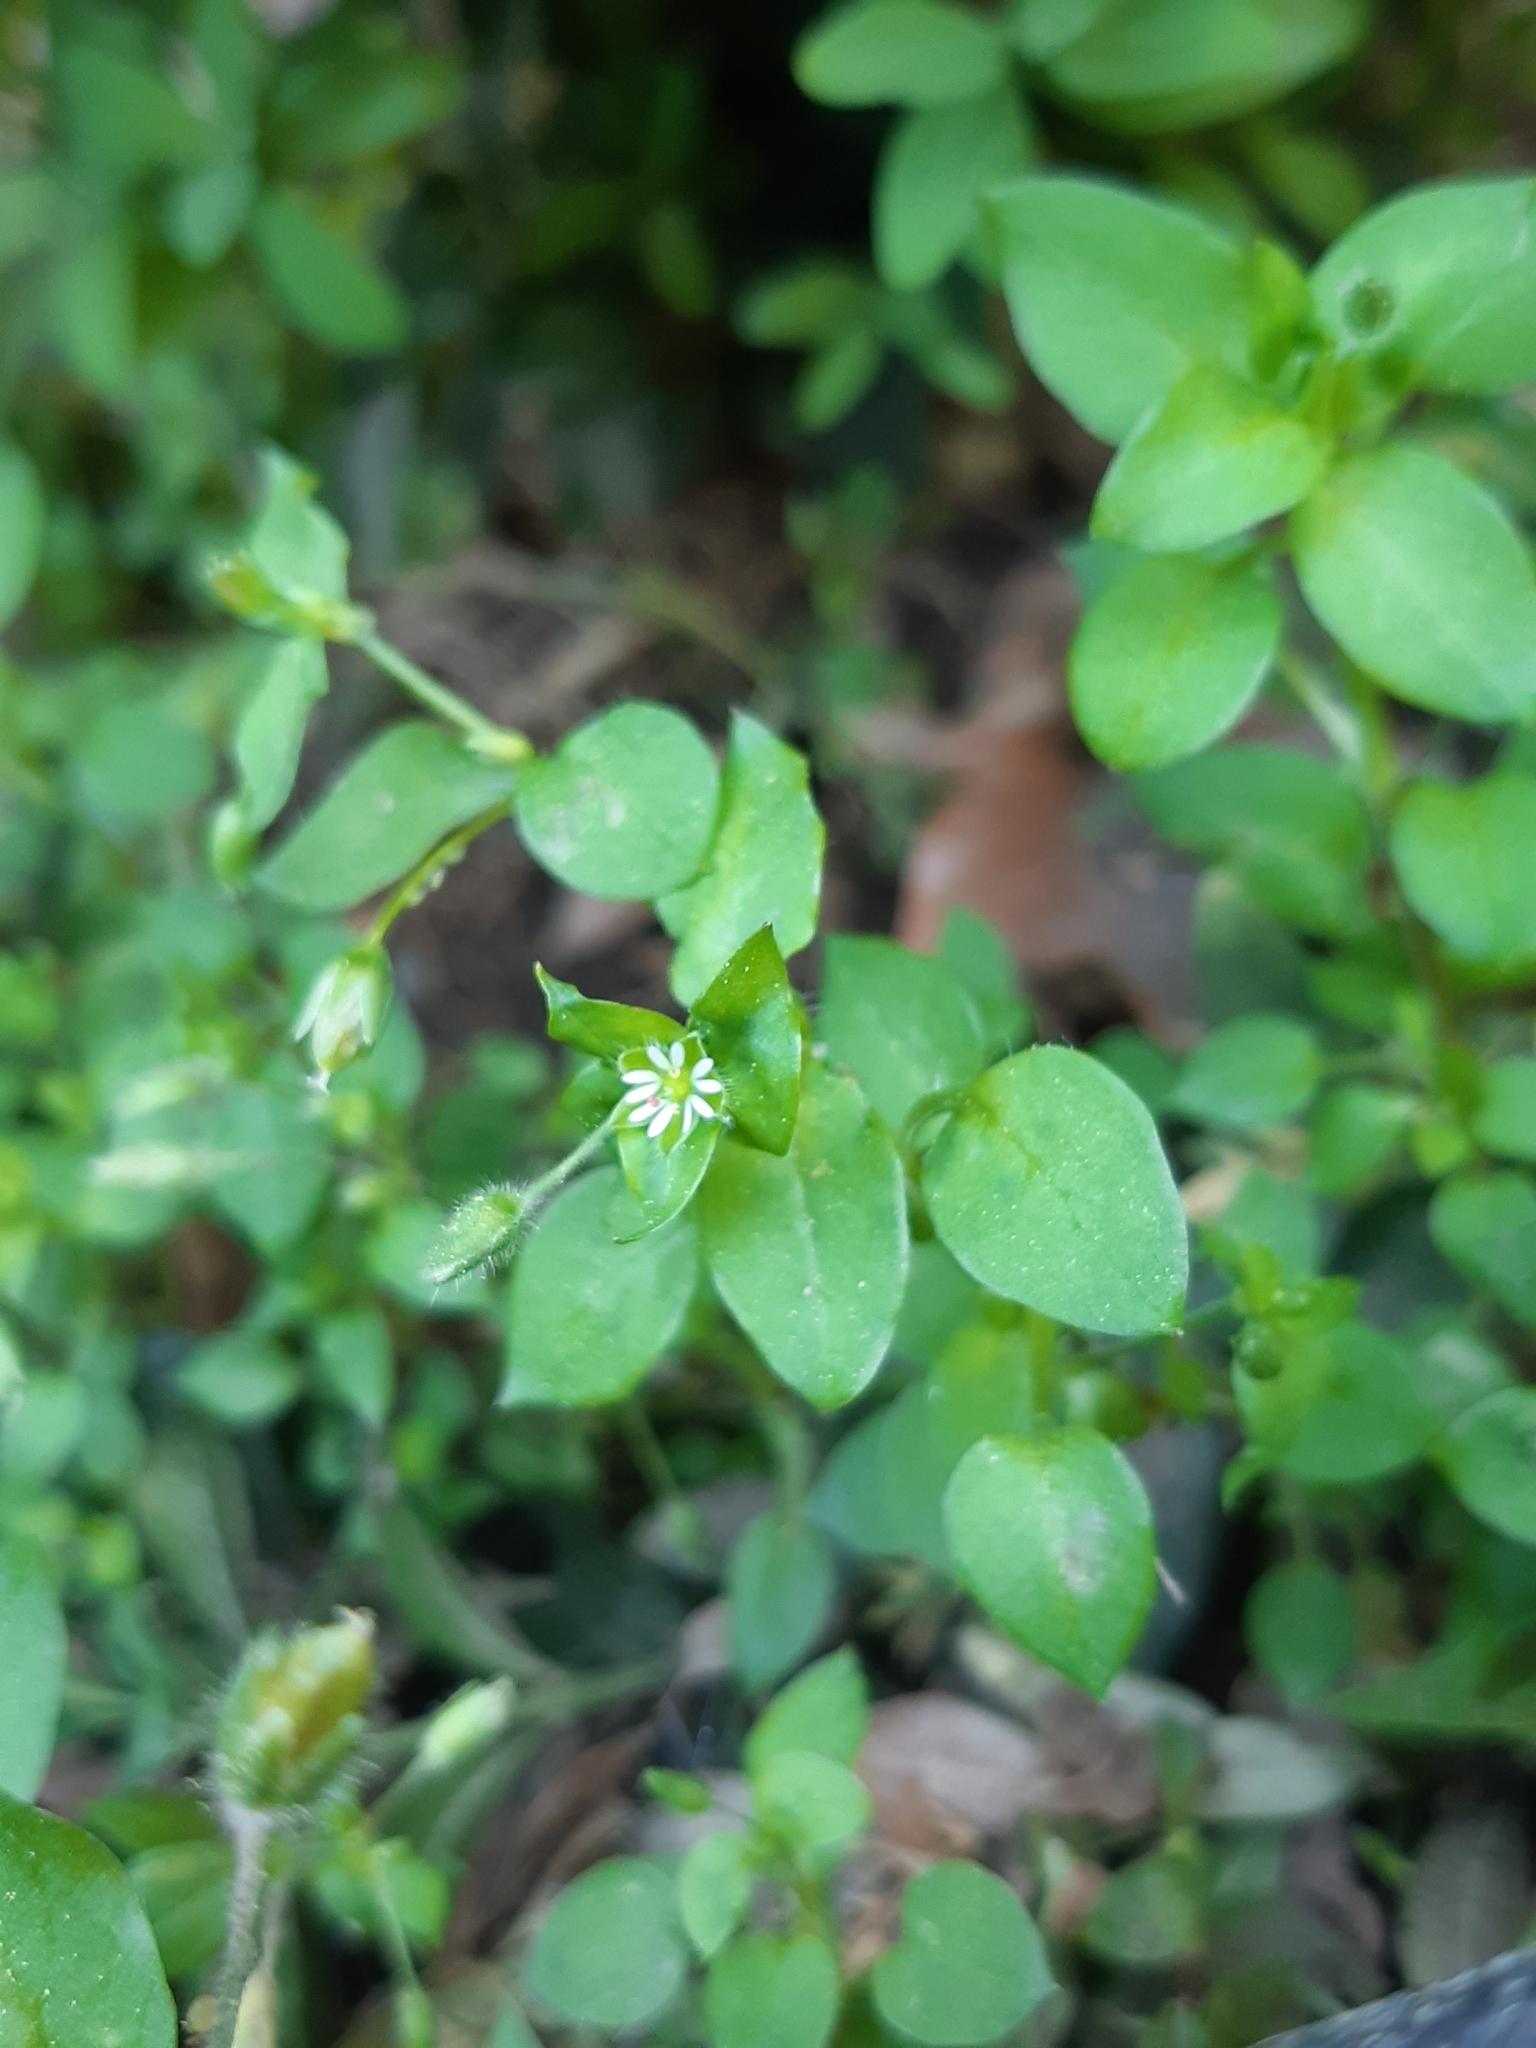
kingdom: Plantae
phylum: Tracheophyta
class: Magnoliopsida
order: Caryophyllales
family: Caryophyllaceae
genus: Stellaria
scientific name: Stellaria media
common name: Common chickweed
